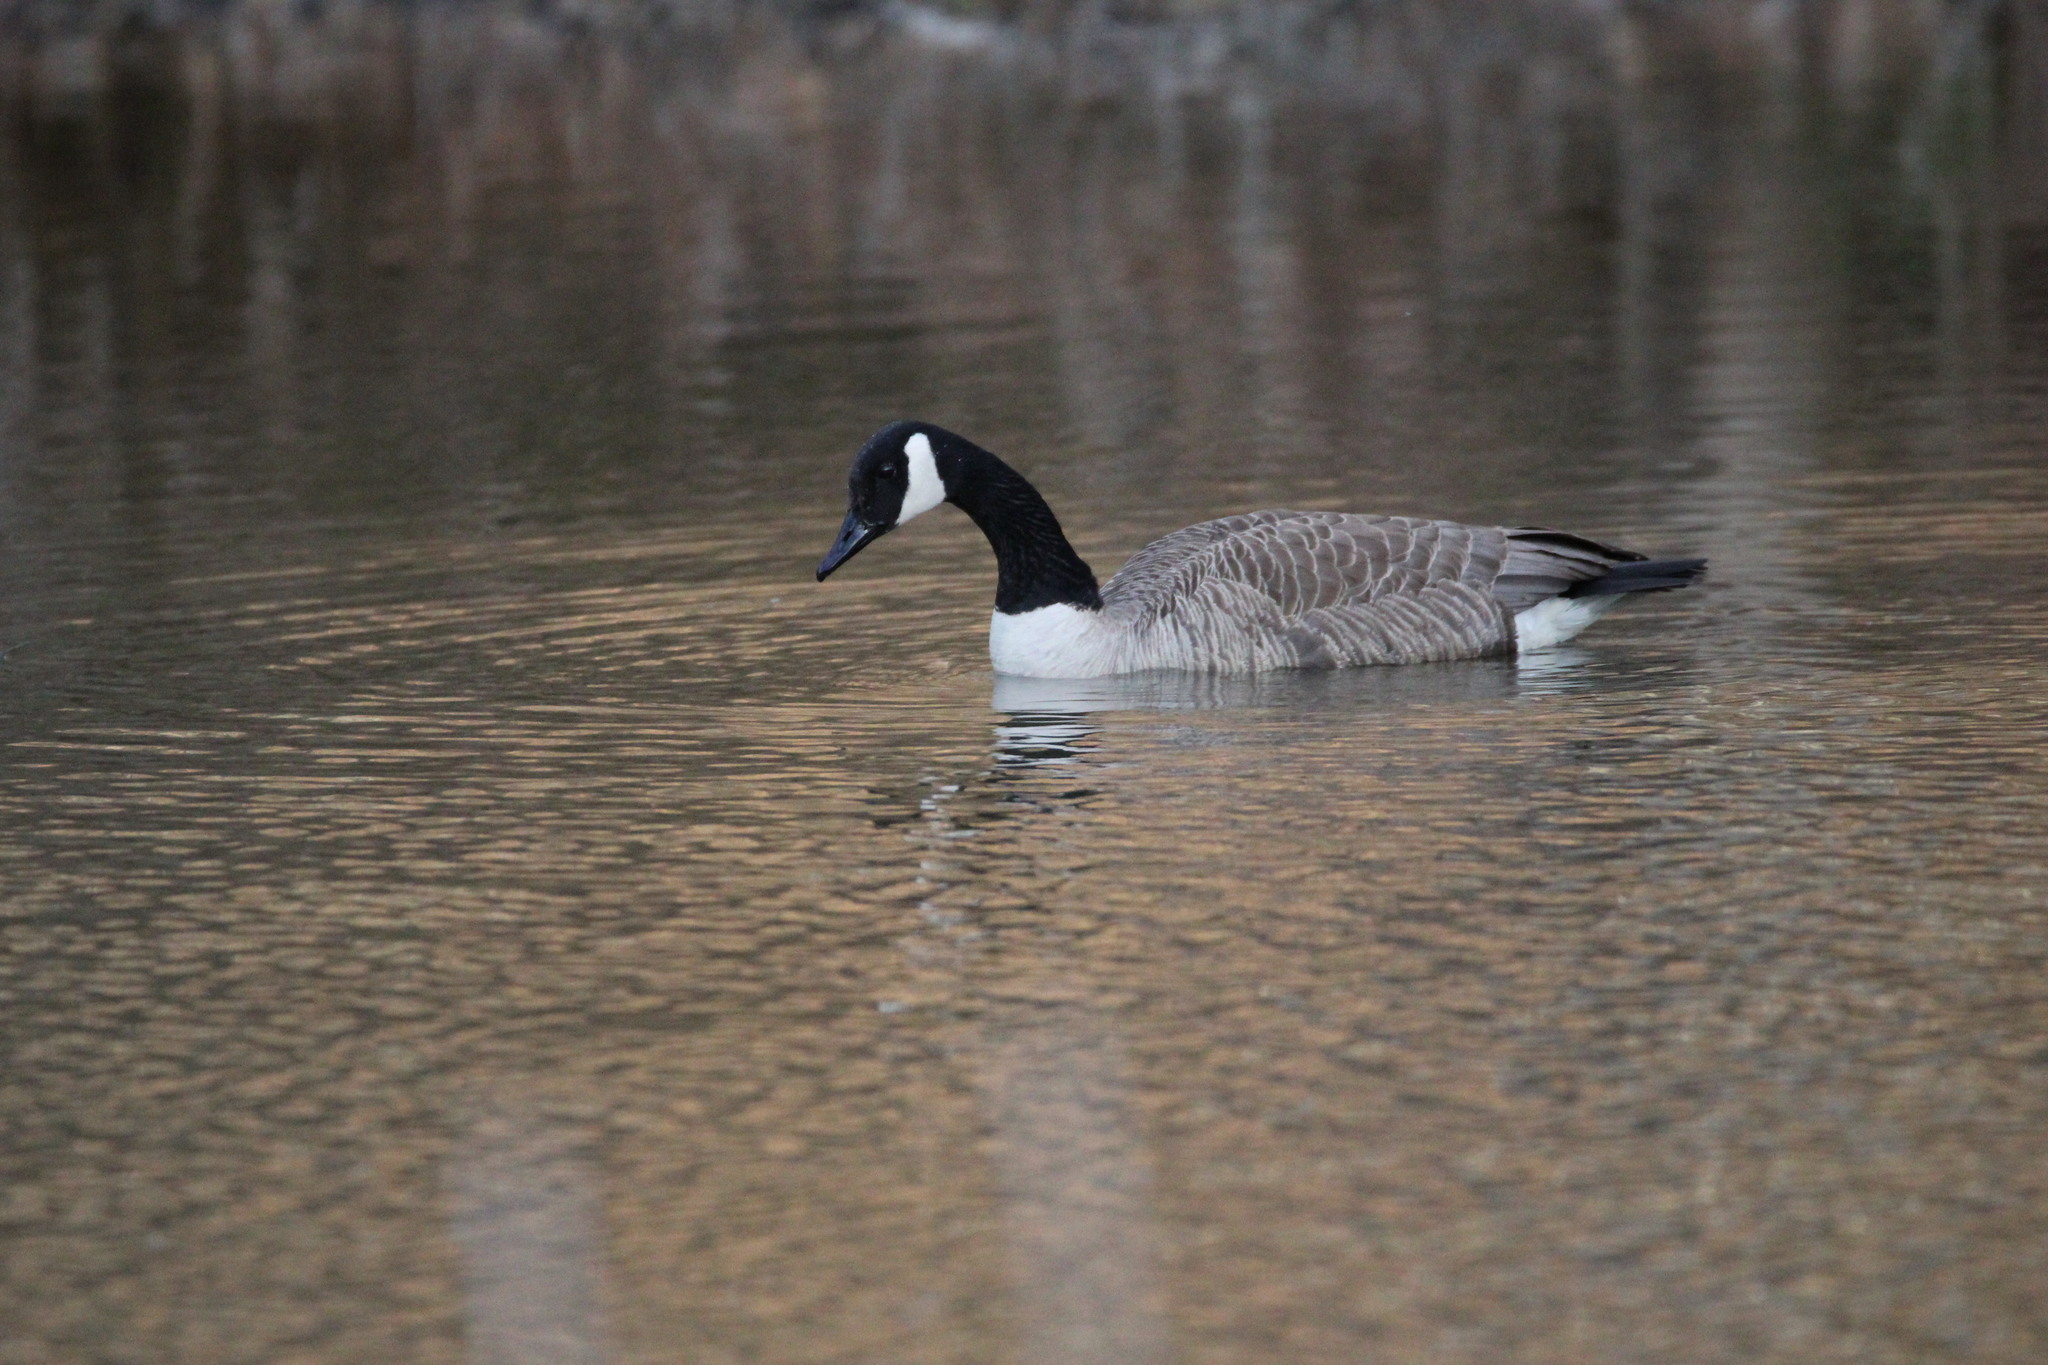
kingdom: Animalia
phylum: Chordata
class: Aves
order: Anseriformes
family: Anatidae
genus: Branta
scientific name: Branta canadensis
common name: Canada goose
